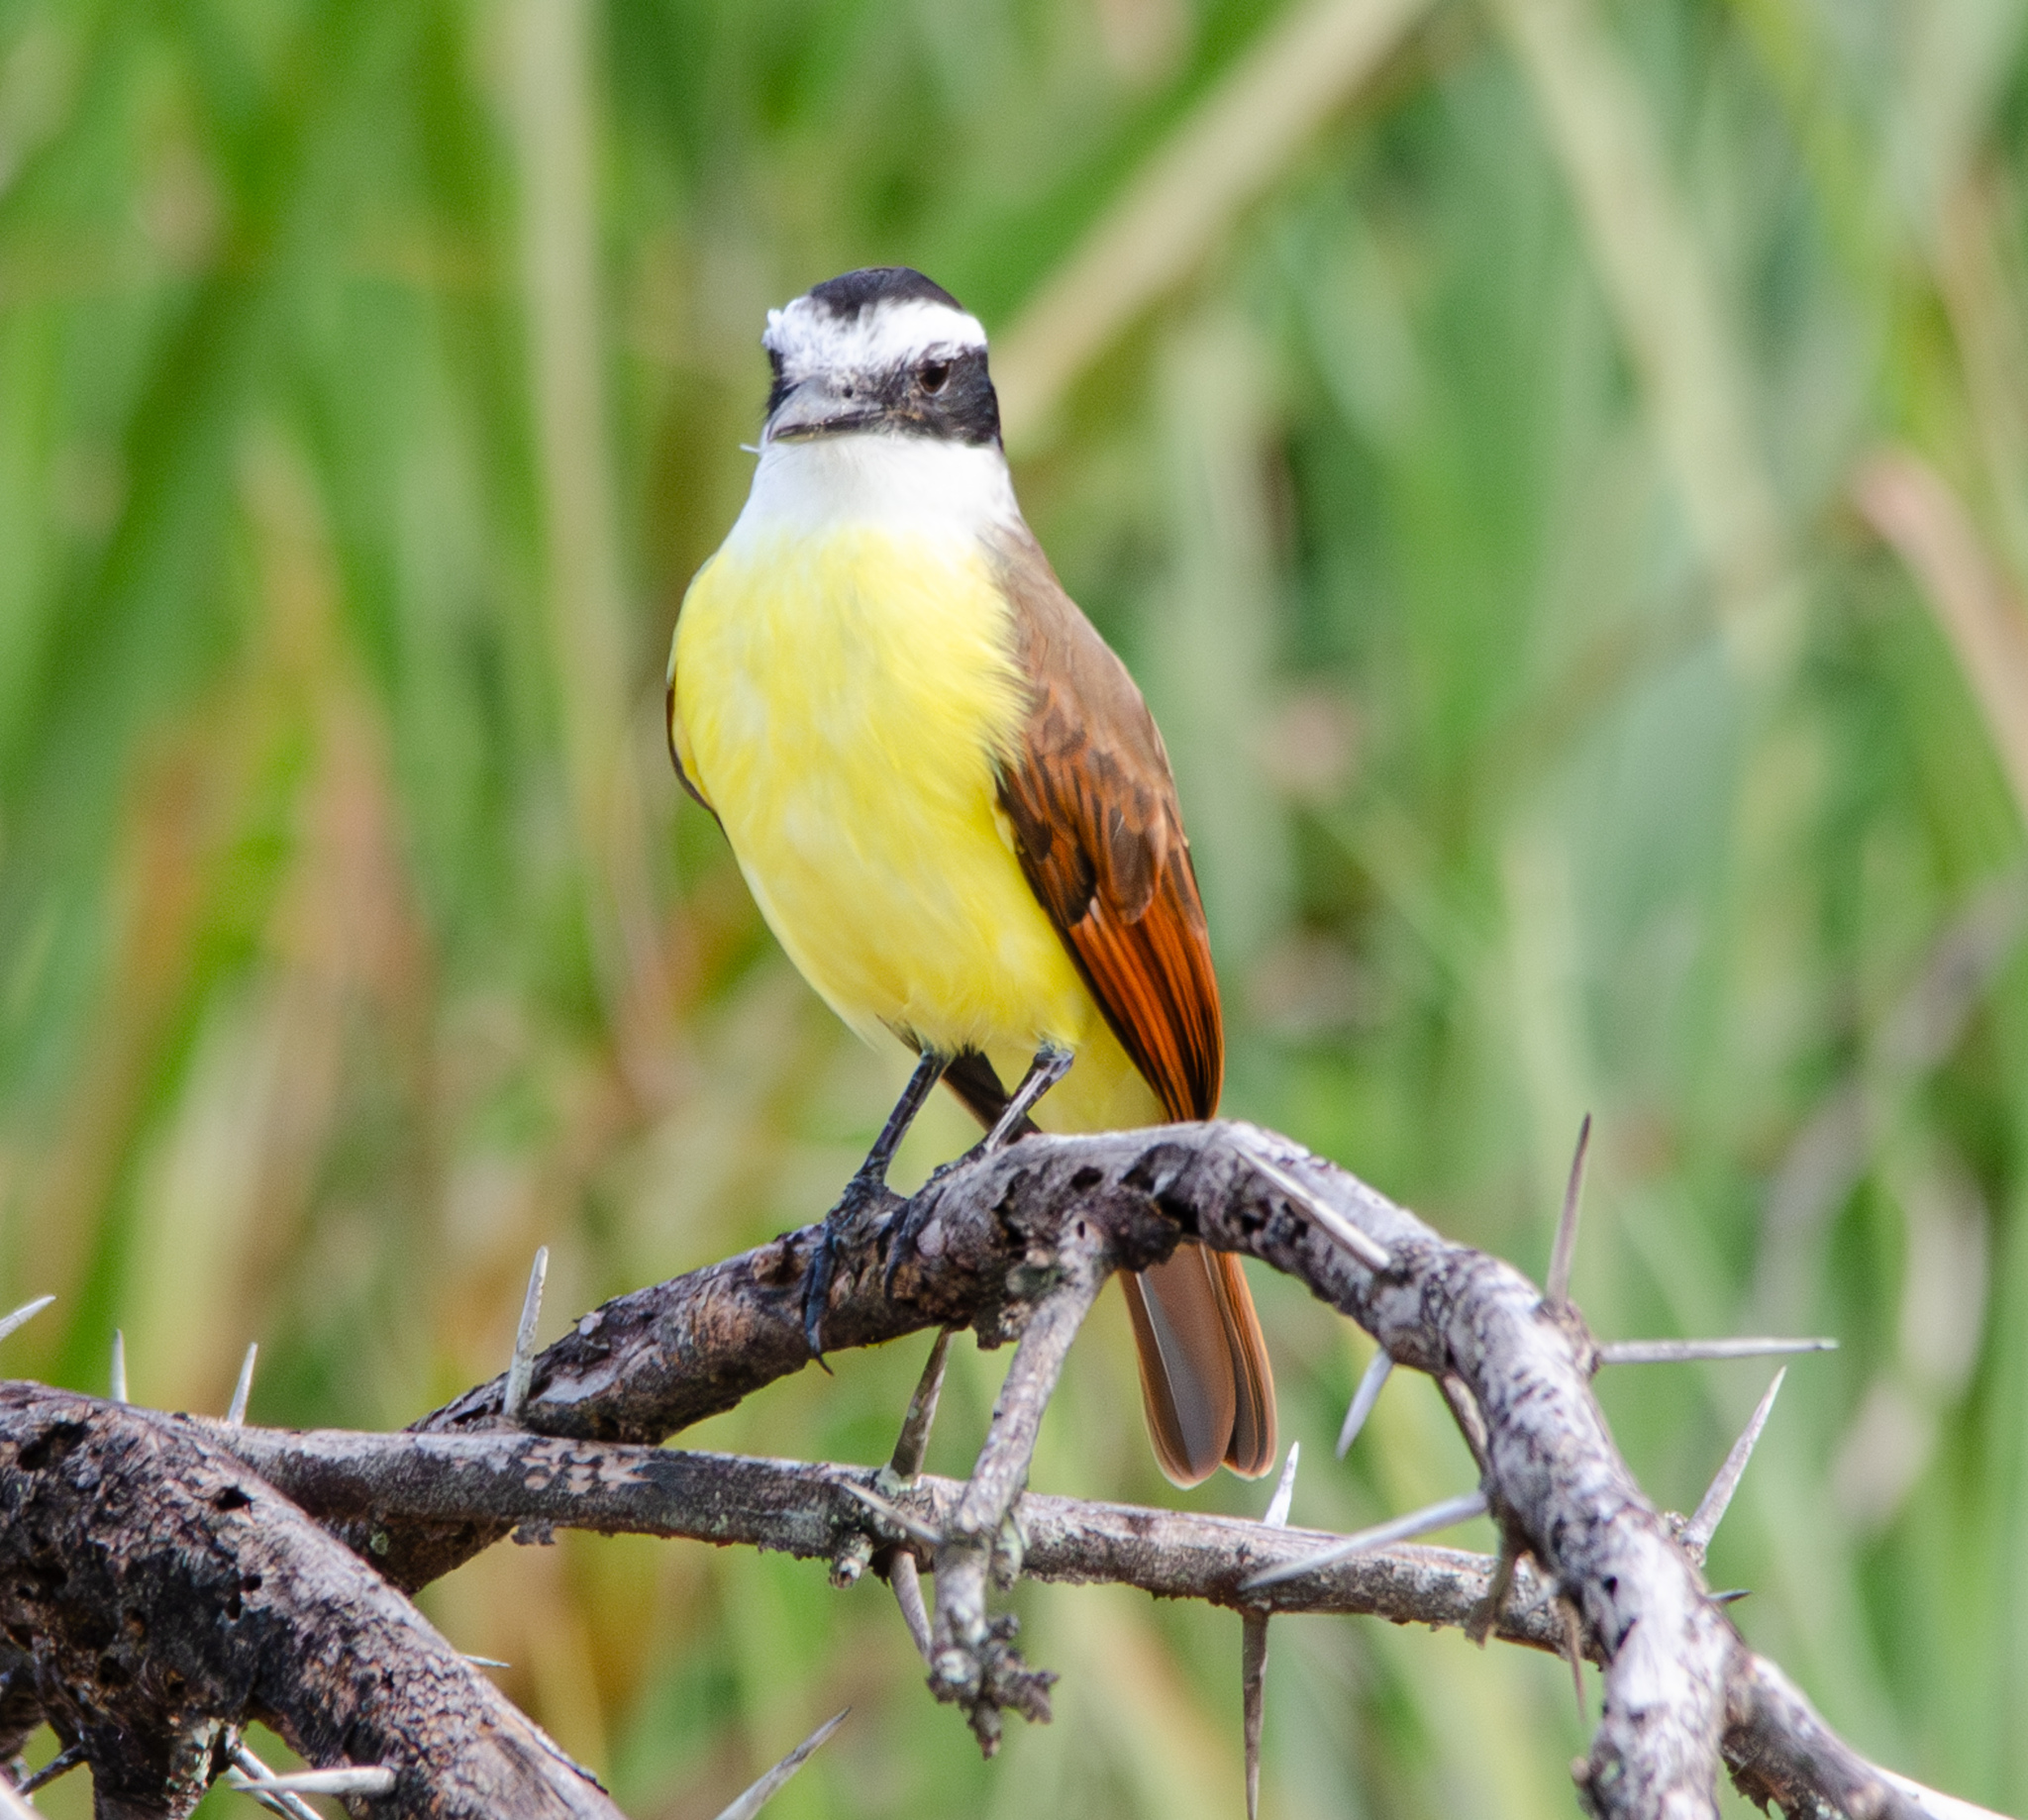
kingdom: Animalia
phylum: Chordata
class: Aves
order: Passeriformes
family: Tyrannidae
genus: Pitangus
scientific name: Pitangus sulphuratus
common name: Great kiskadee
